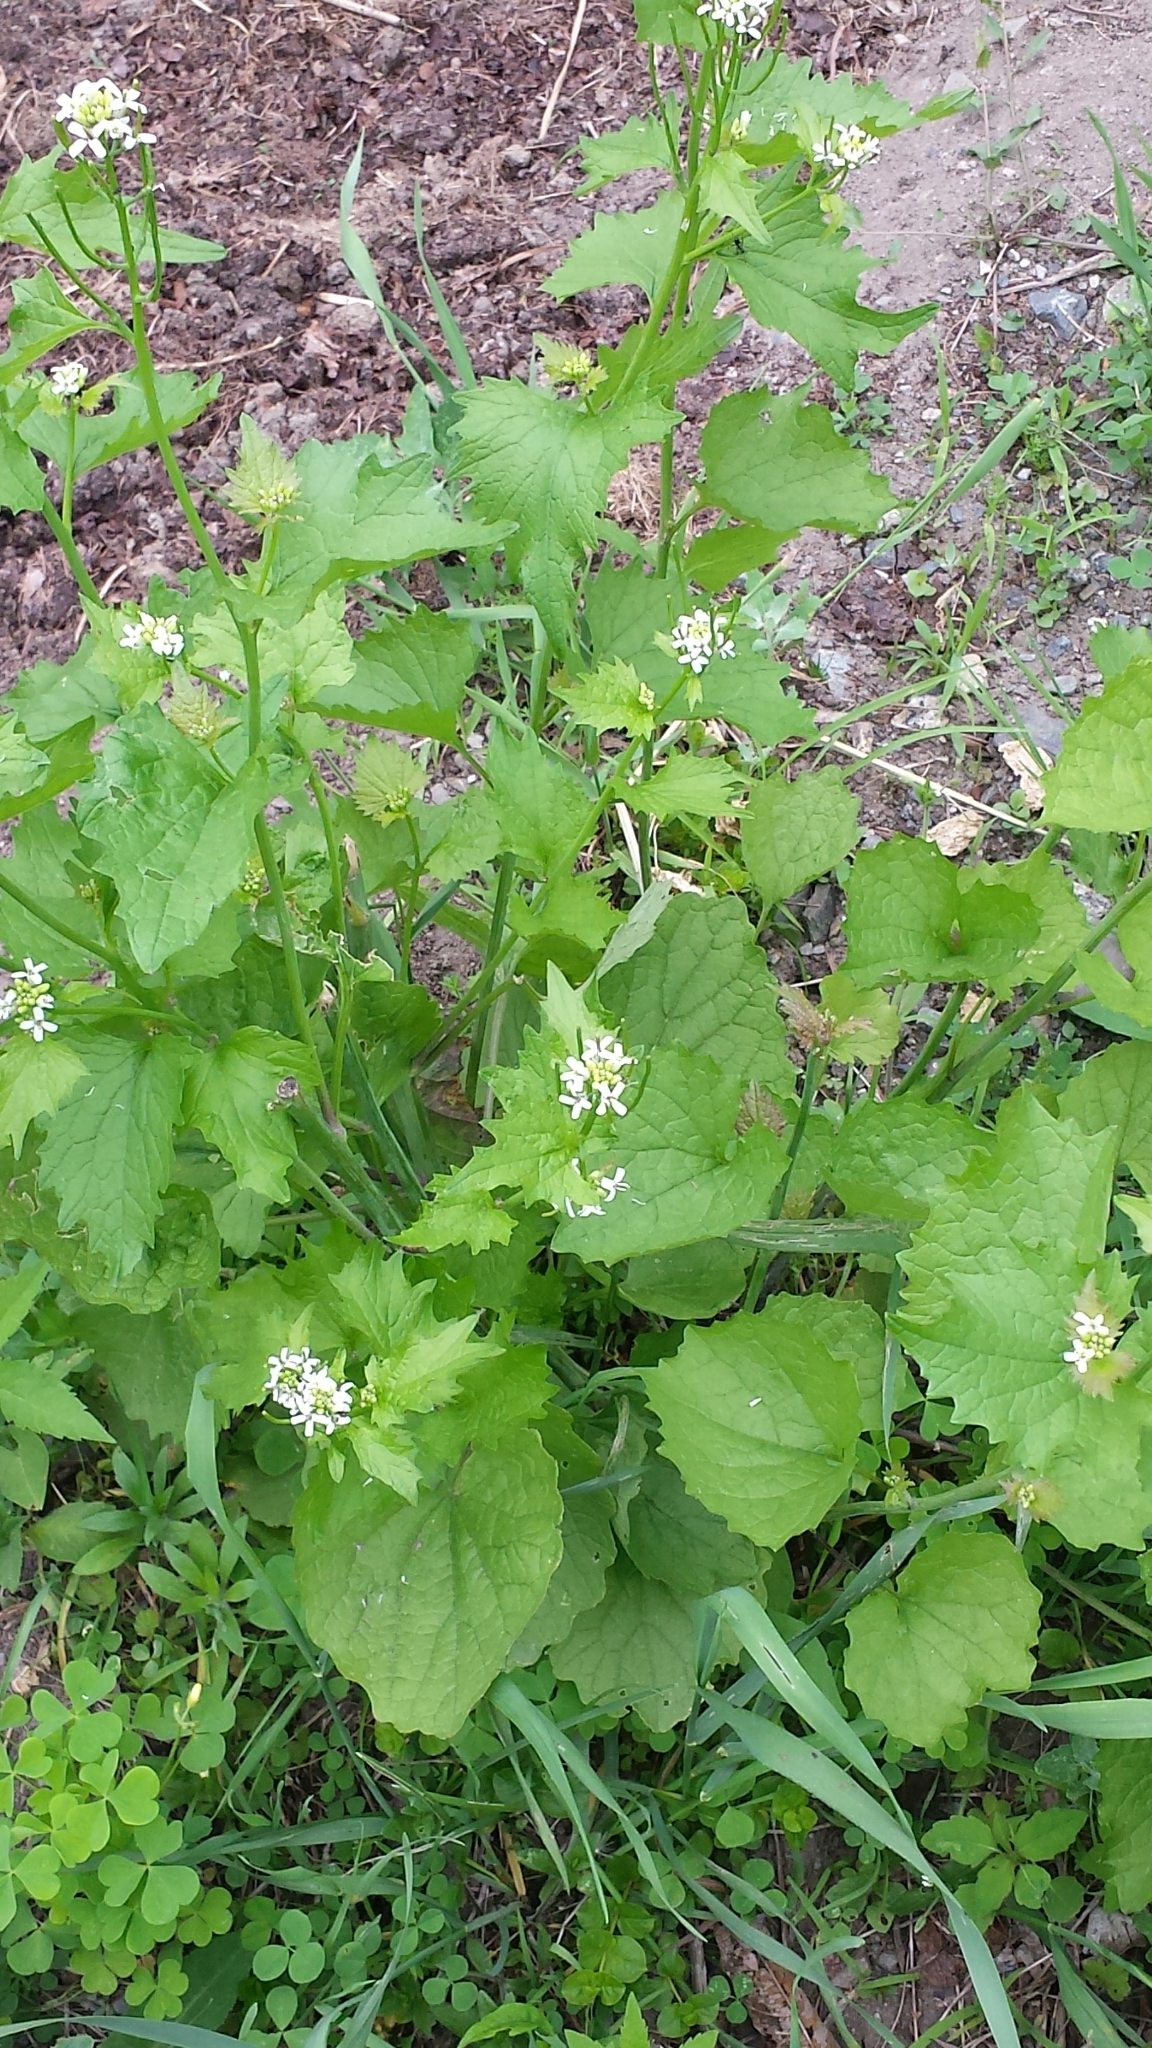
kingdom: Plantae
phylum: Tracheophyta
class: Magnoliopsida
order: Brassicales
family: Brassicaceae
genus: Alliaria
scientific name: Alliaria petiolata
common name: Garlic mustard
